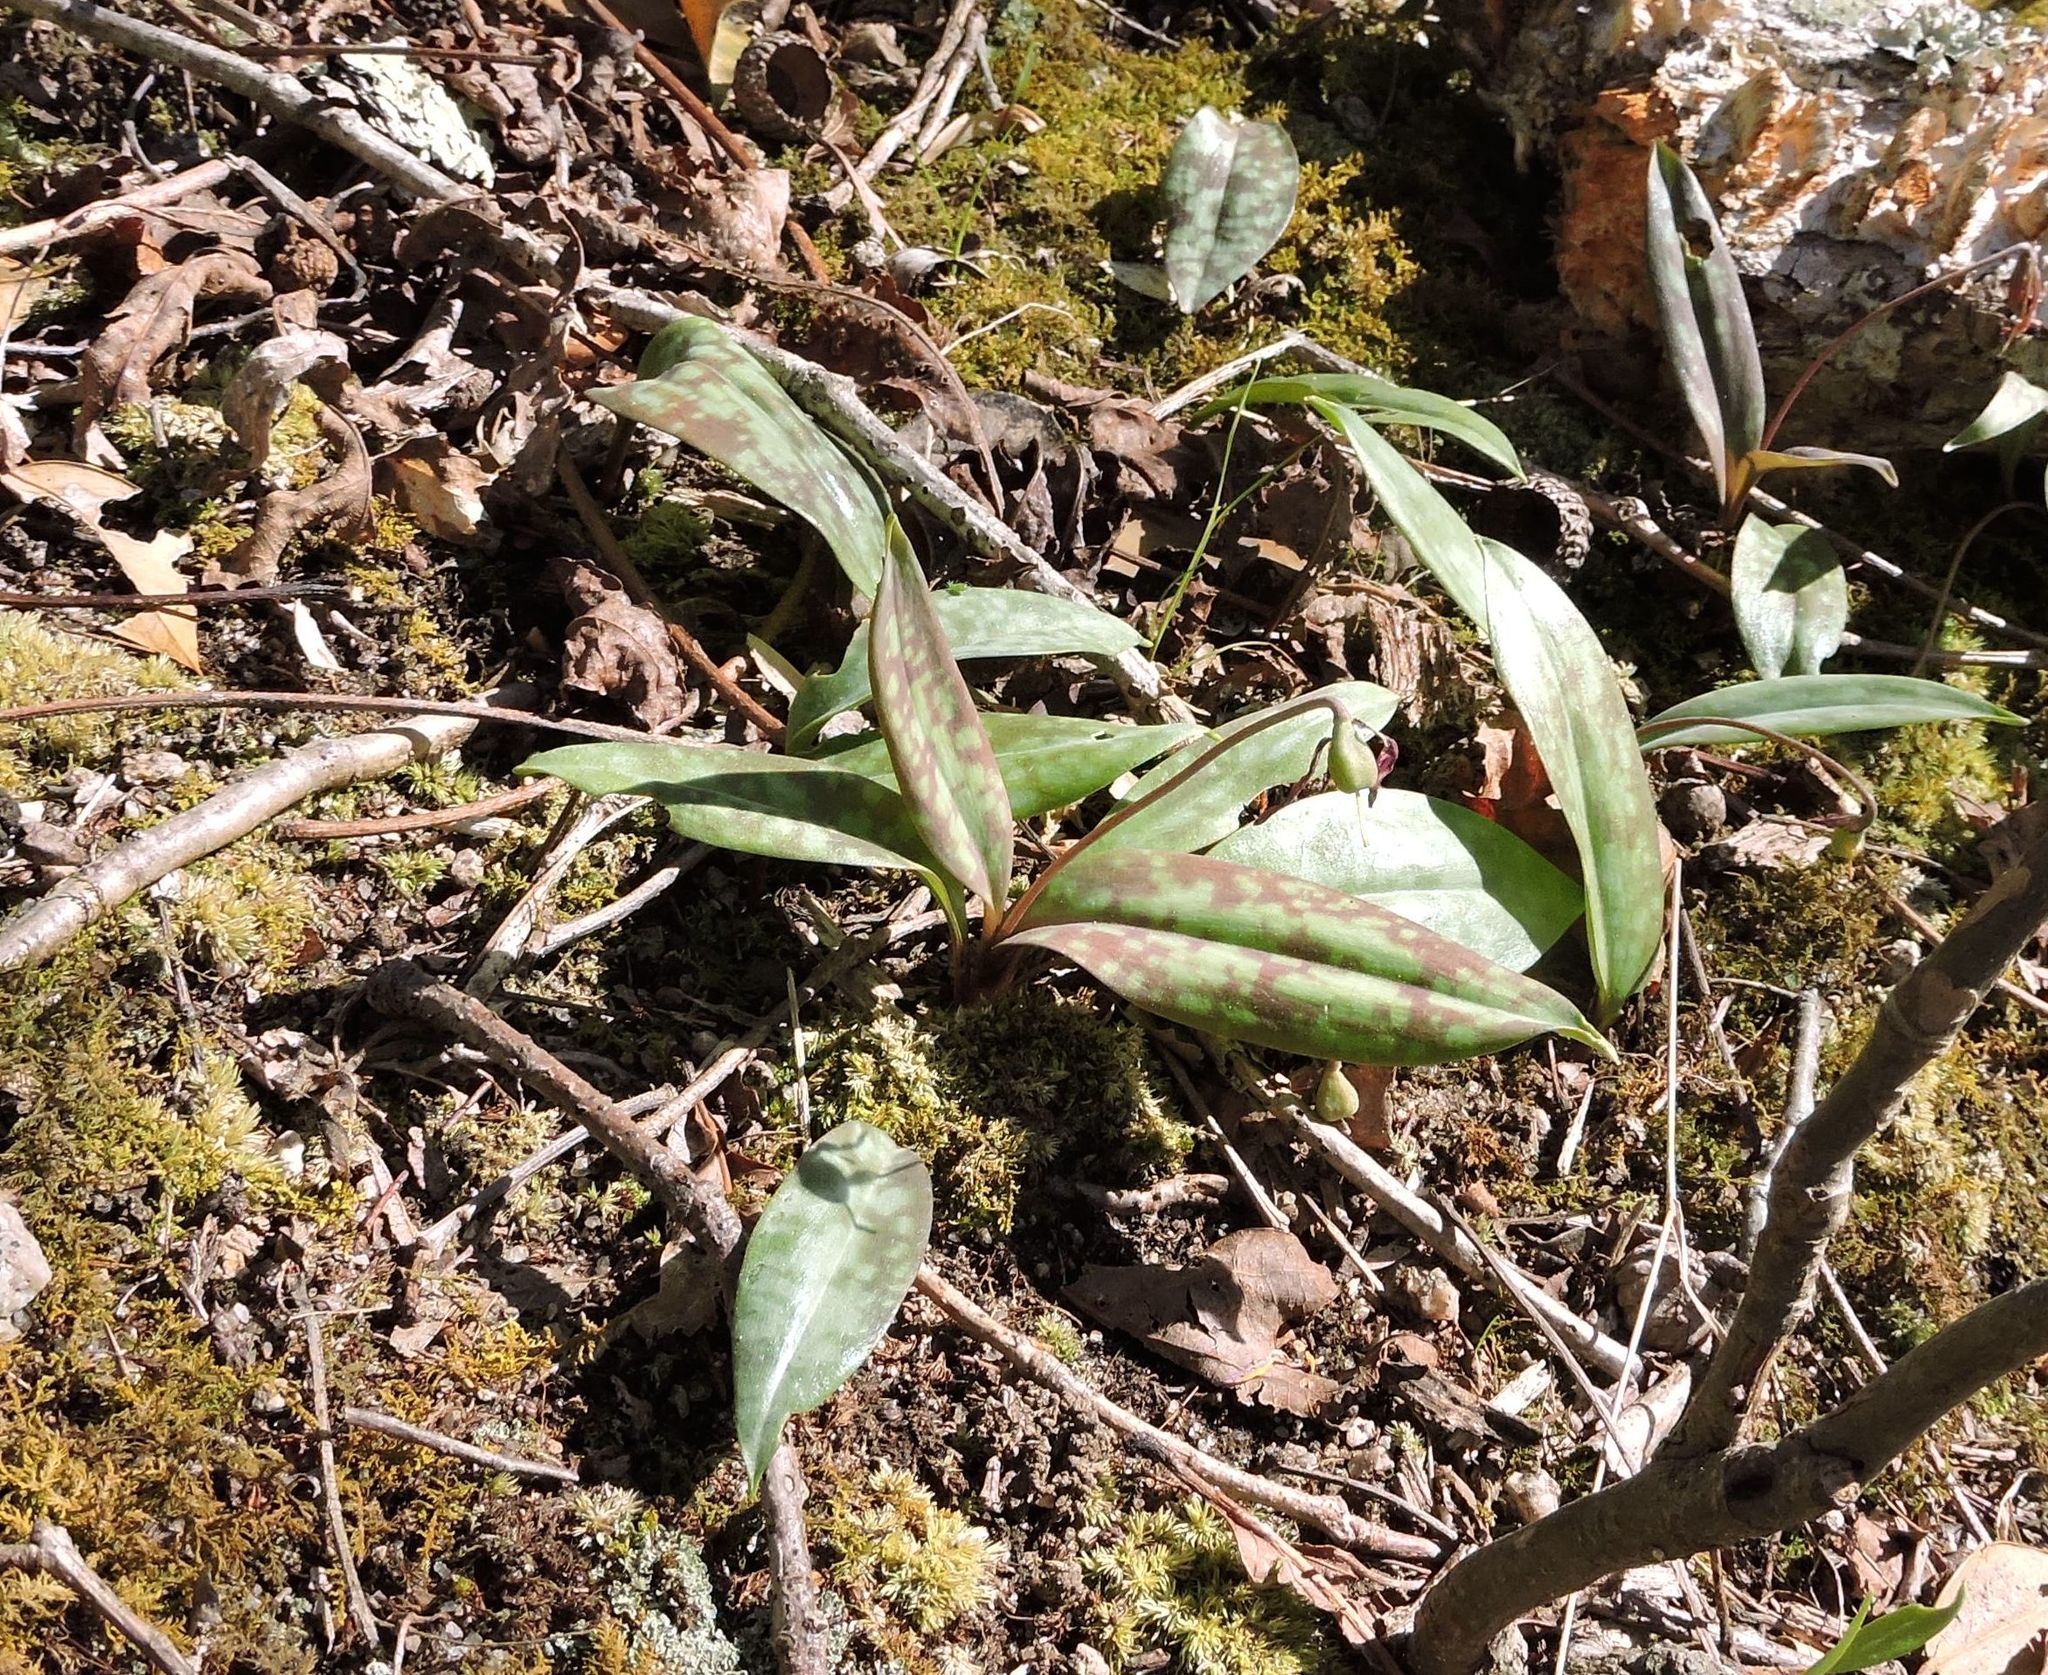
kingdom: Plantae
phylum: Tracheophyta
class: Liliopsida
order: Liliales
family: Liliaceae
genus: Erythronium
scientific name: Erythronium americanum
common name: Yellow adder's-tongue
